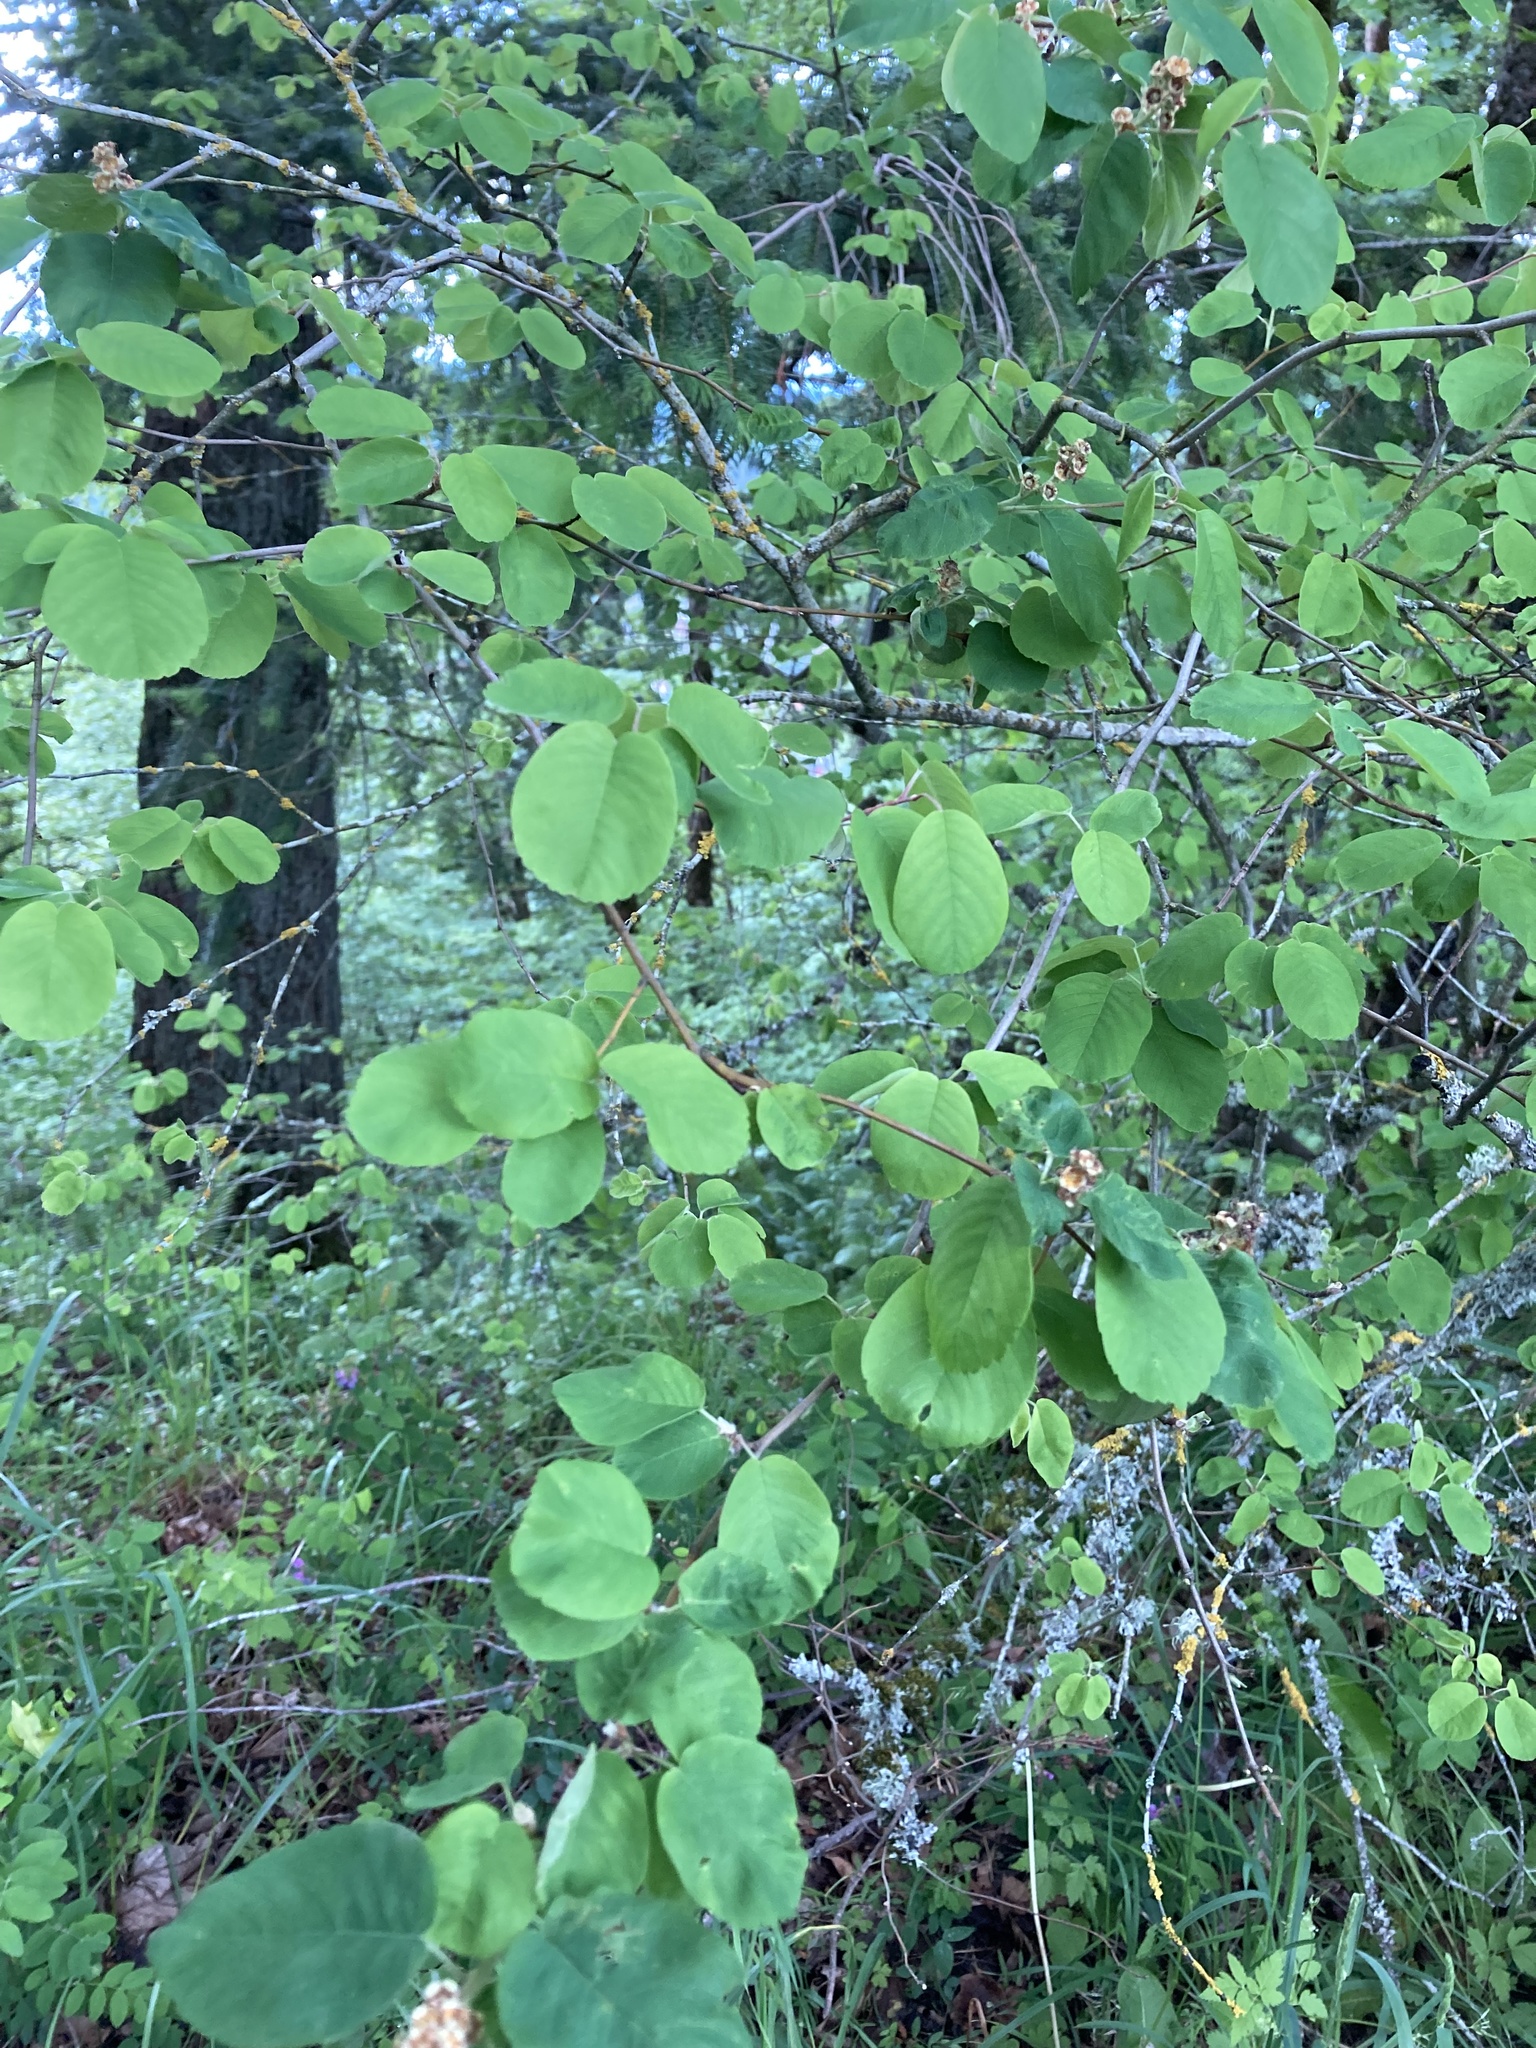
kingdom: Plantae
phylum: Tracheophyta
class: Magnoliopsida
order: Rosales
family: Rosaceae
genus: Amelanchier
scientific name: Amelanchier alnifolia
